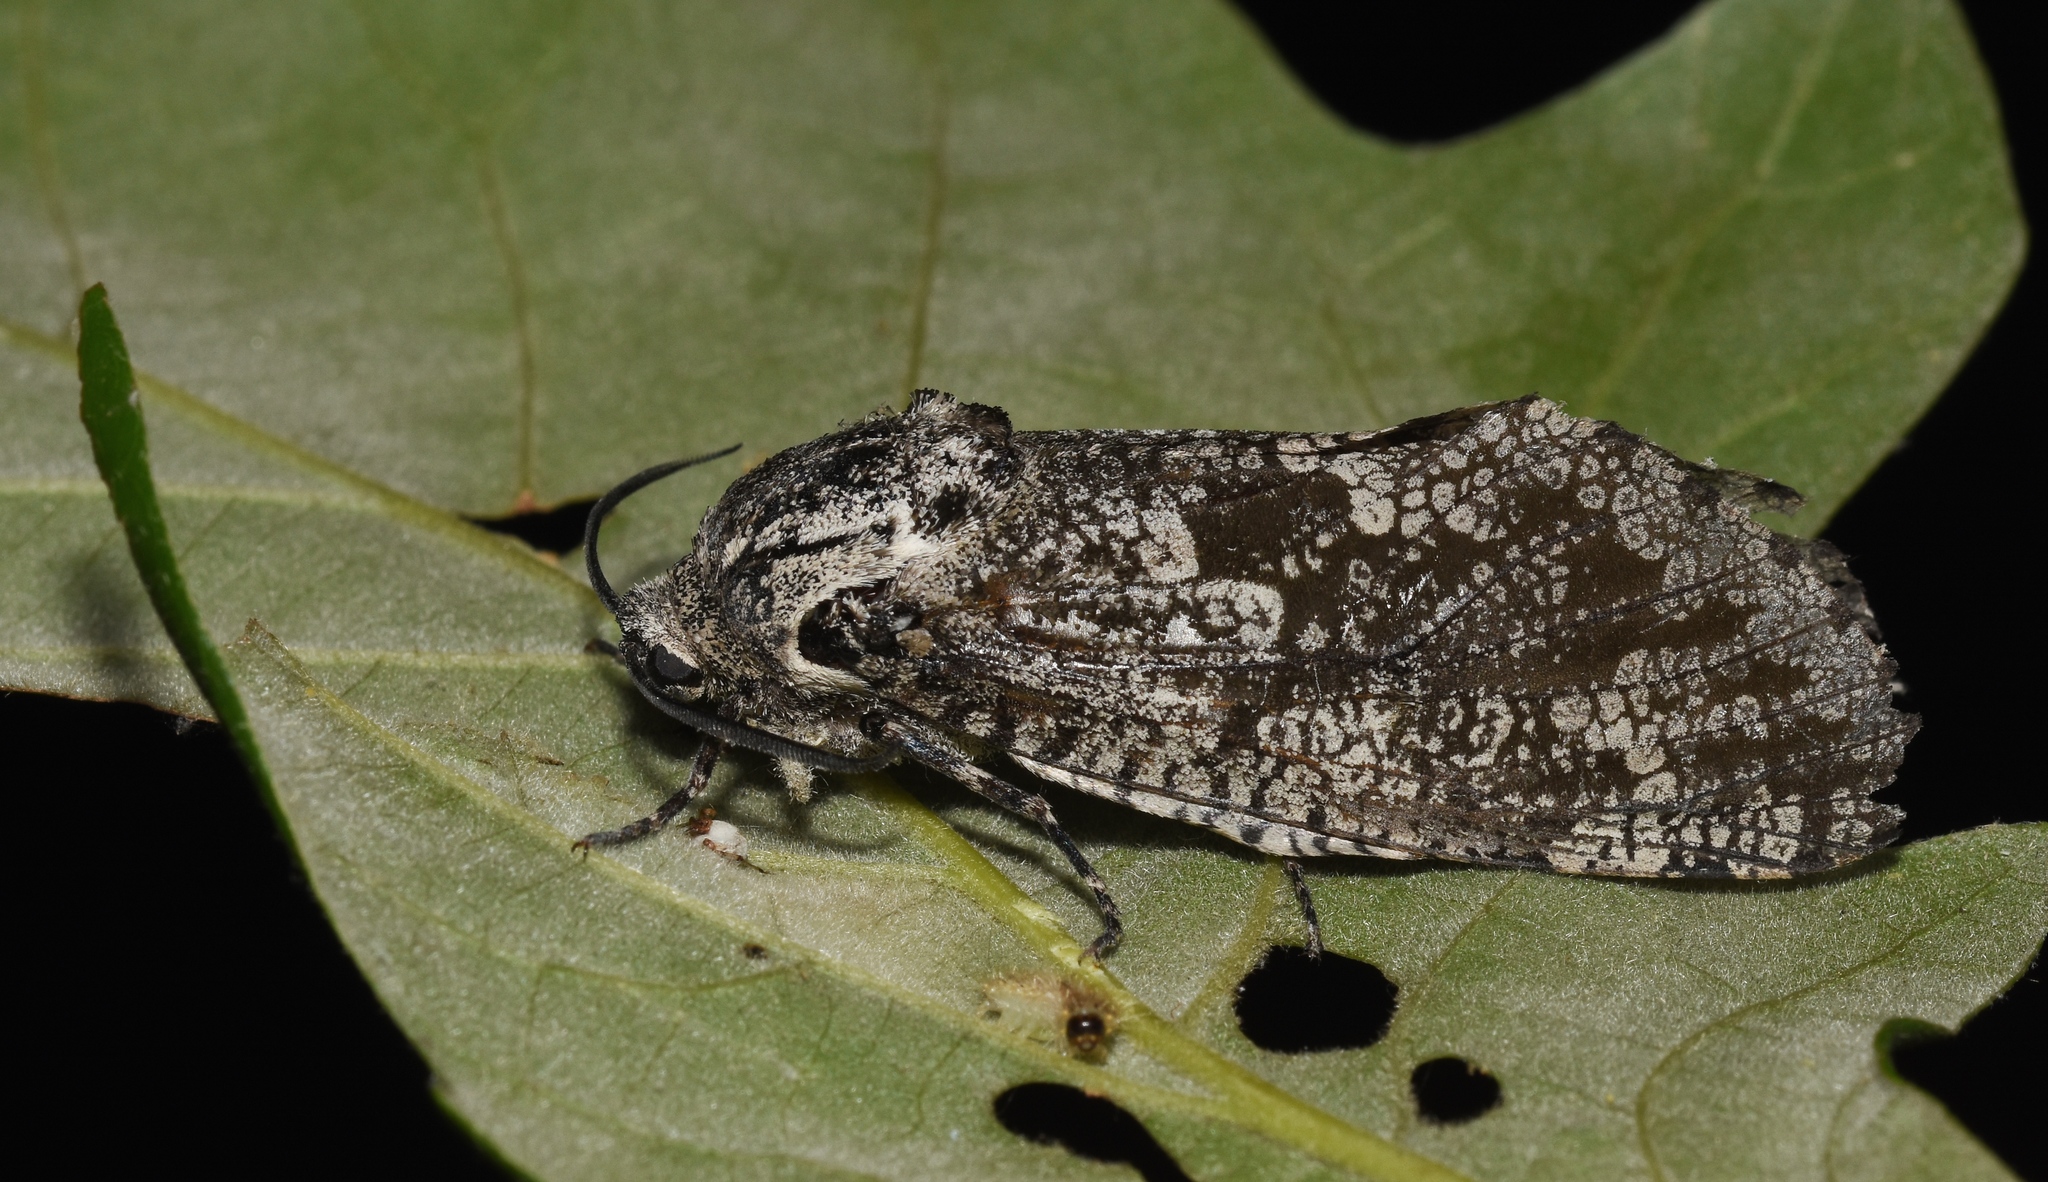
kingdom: Animalia
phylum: Arthropoda
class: Insecta
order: Lepidoptera
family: Cossidae
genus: Prionoxystus
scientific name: Prionoxystus robiniae
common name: Carpenterworm
